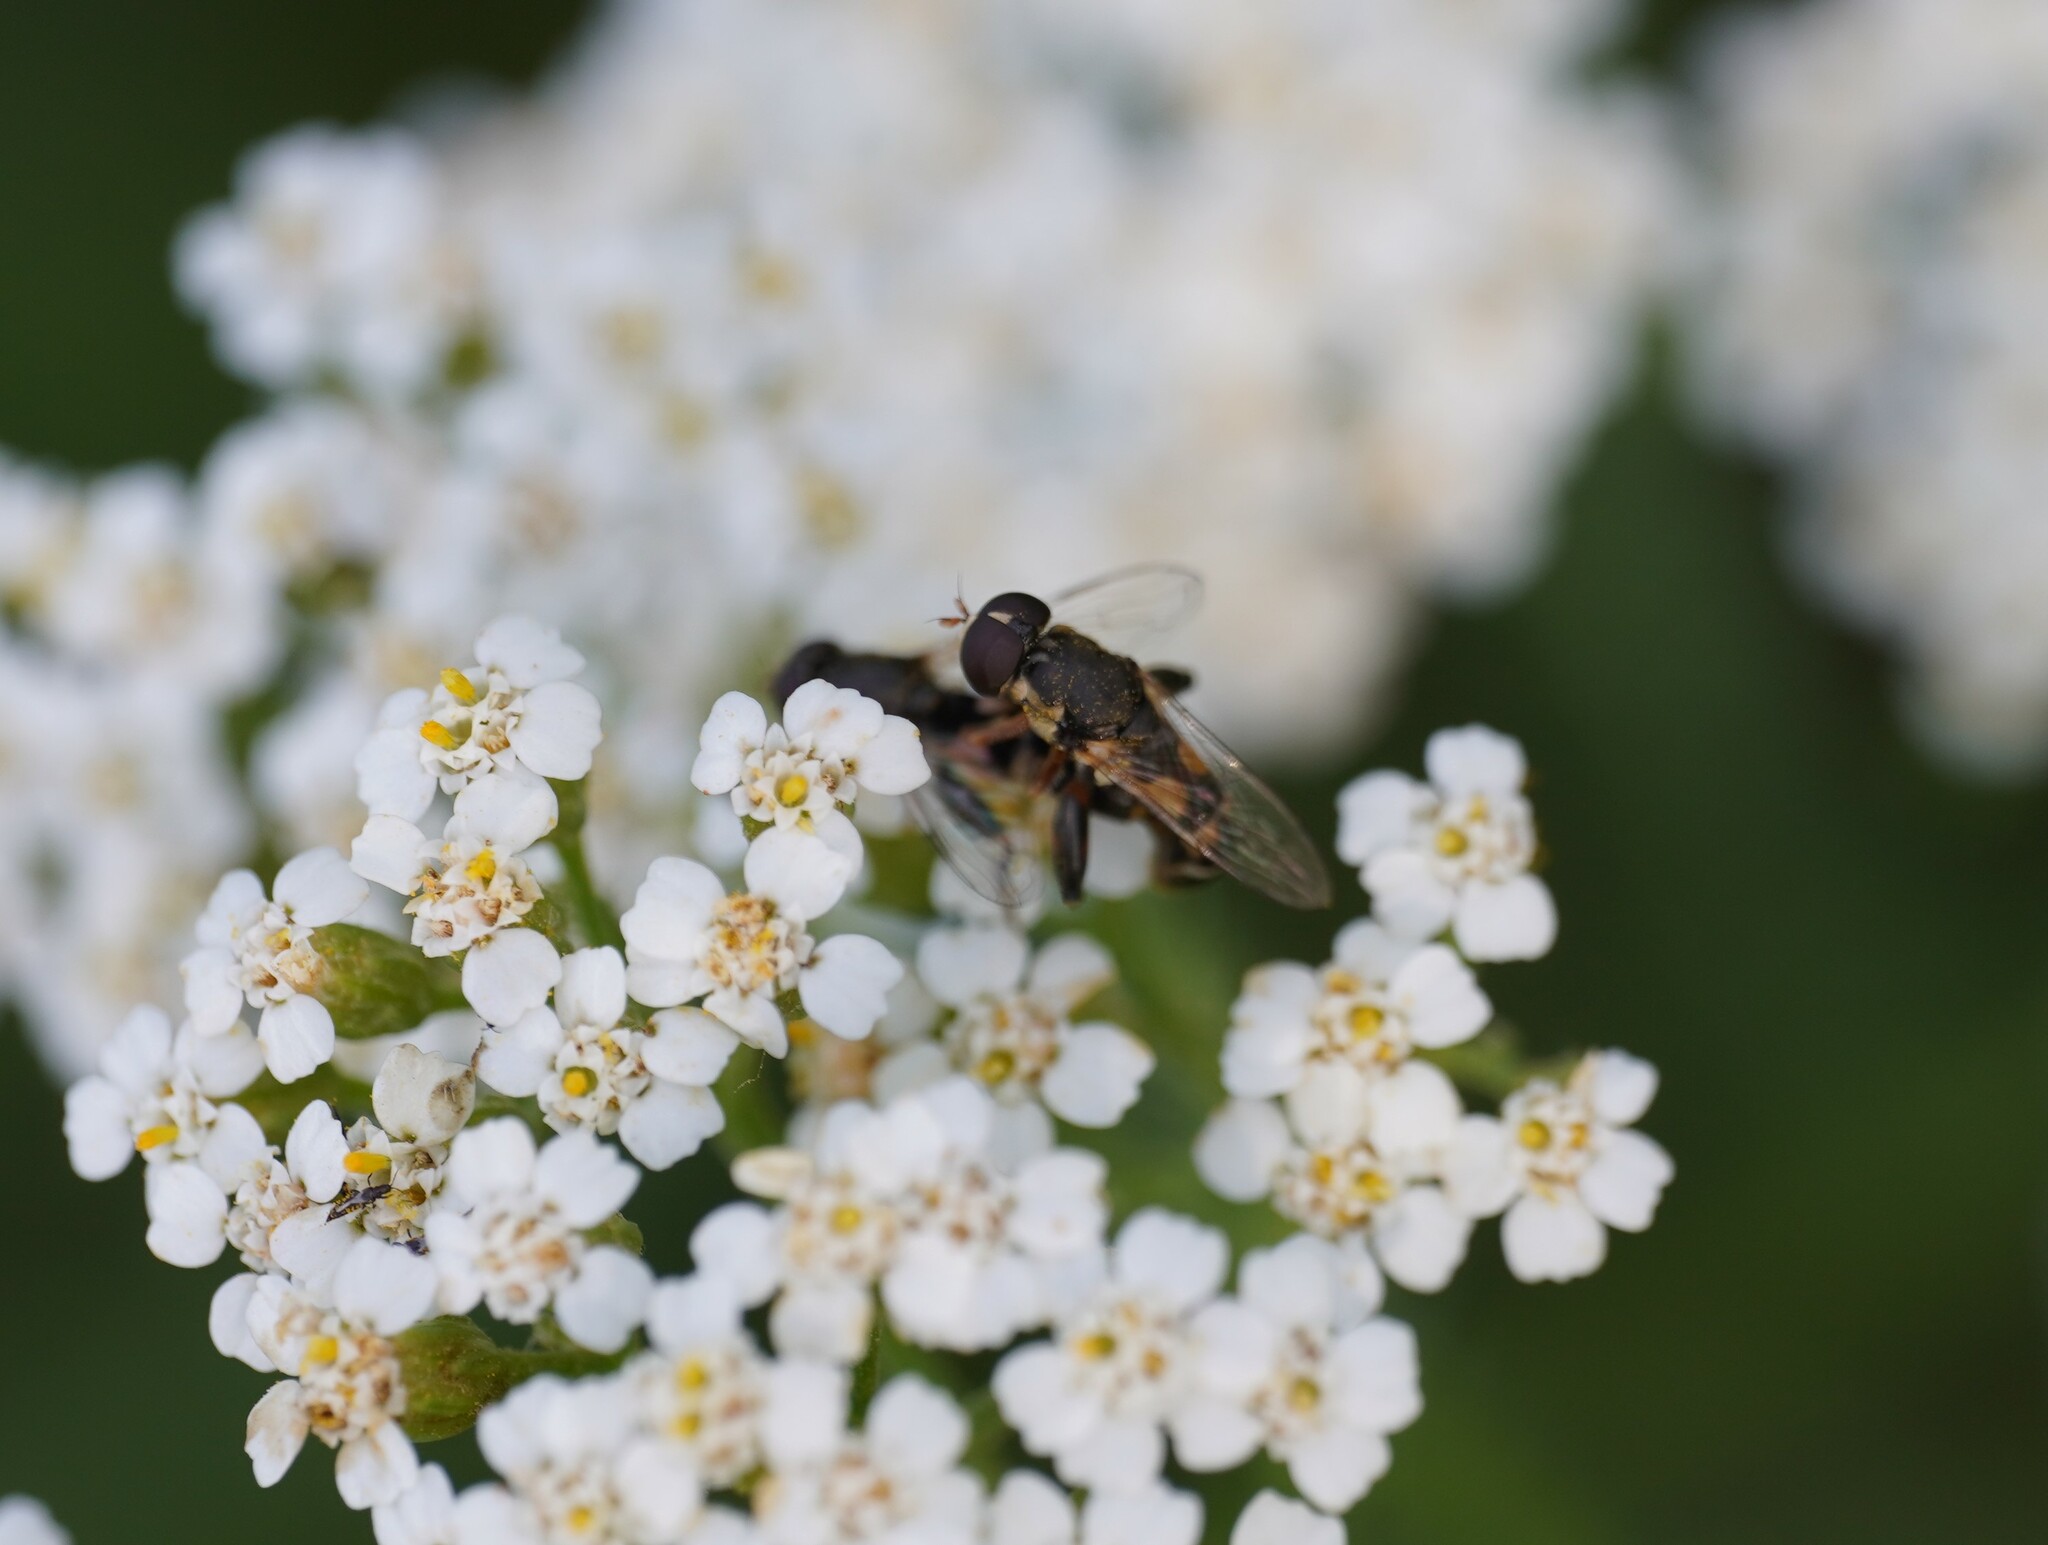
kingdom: Animalia
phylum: Arthropoda
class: Insecta
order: Diptera
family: Syrphidae
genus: Syritta
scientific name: Syritta pipiens
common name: Hover fly
